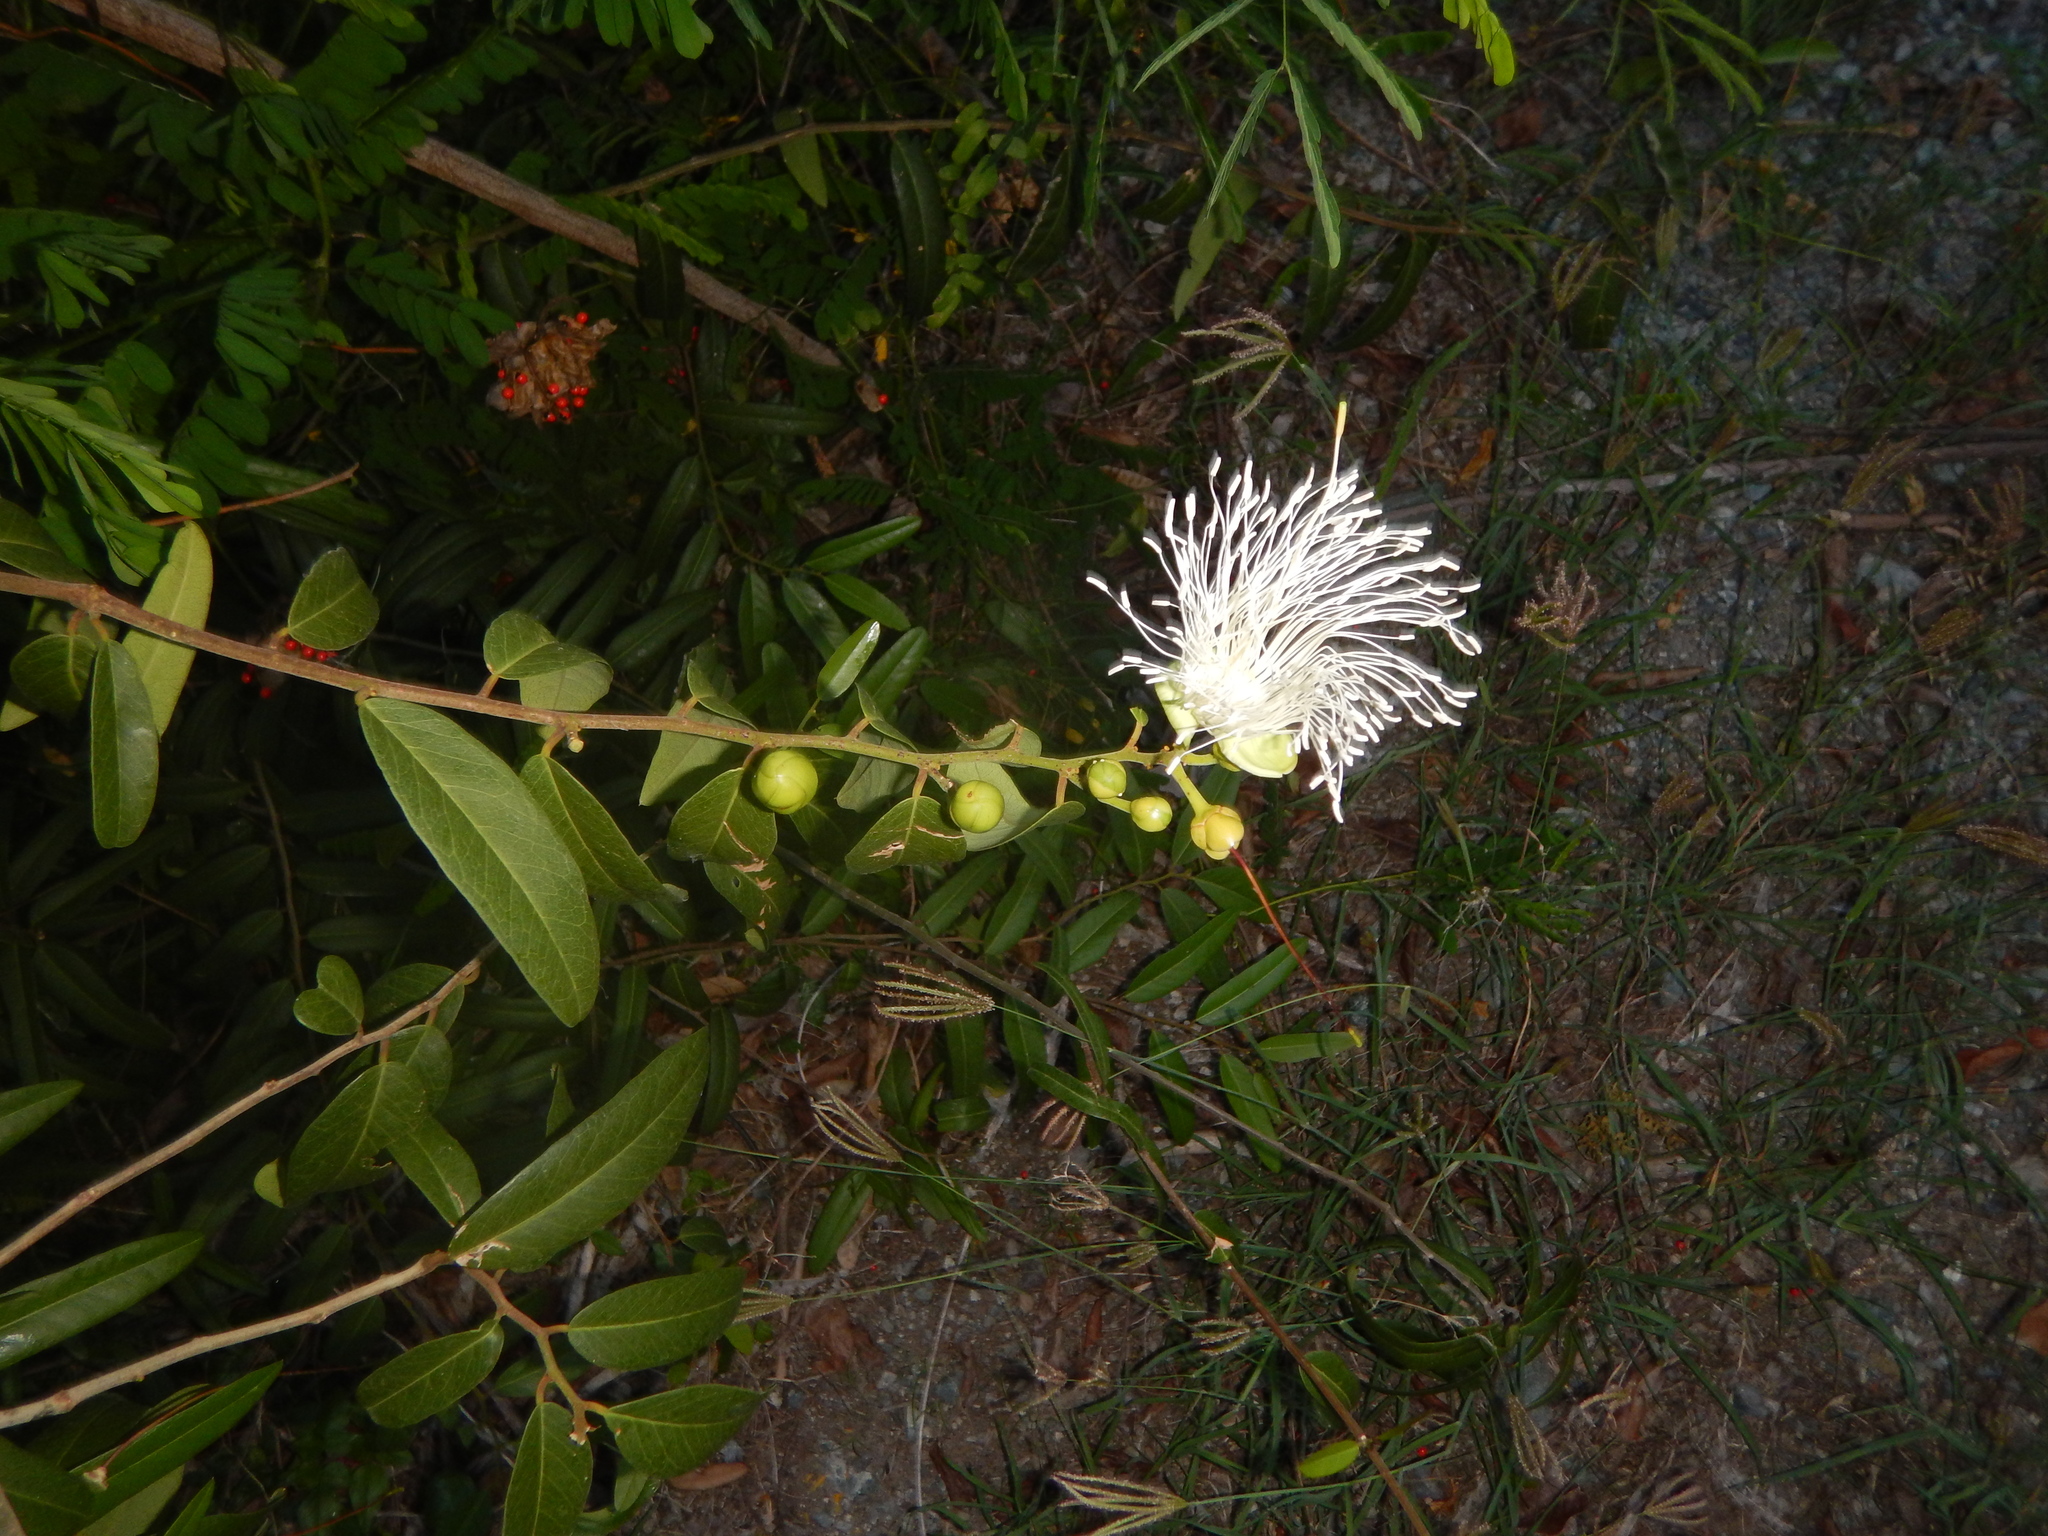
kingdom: Plantae
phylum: Tracheophyta
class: Magnoliopsida
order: Brassicales
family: Capparaceae
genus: Cynophalla
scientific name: Cynophalla flexuosa
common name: Capertree
